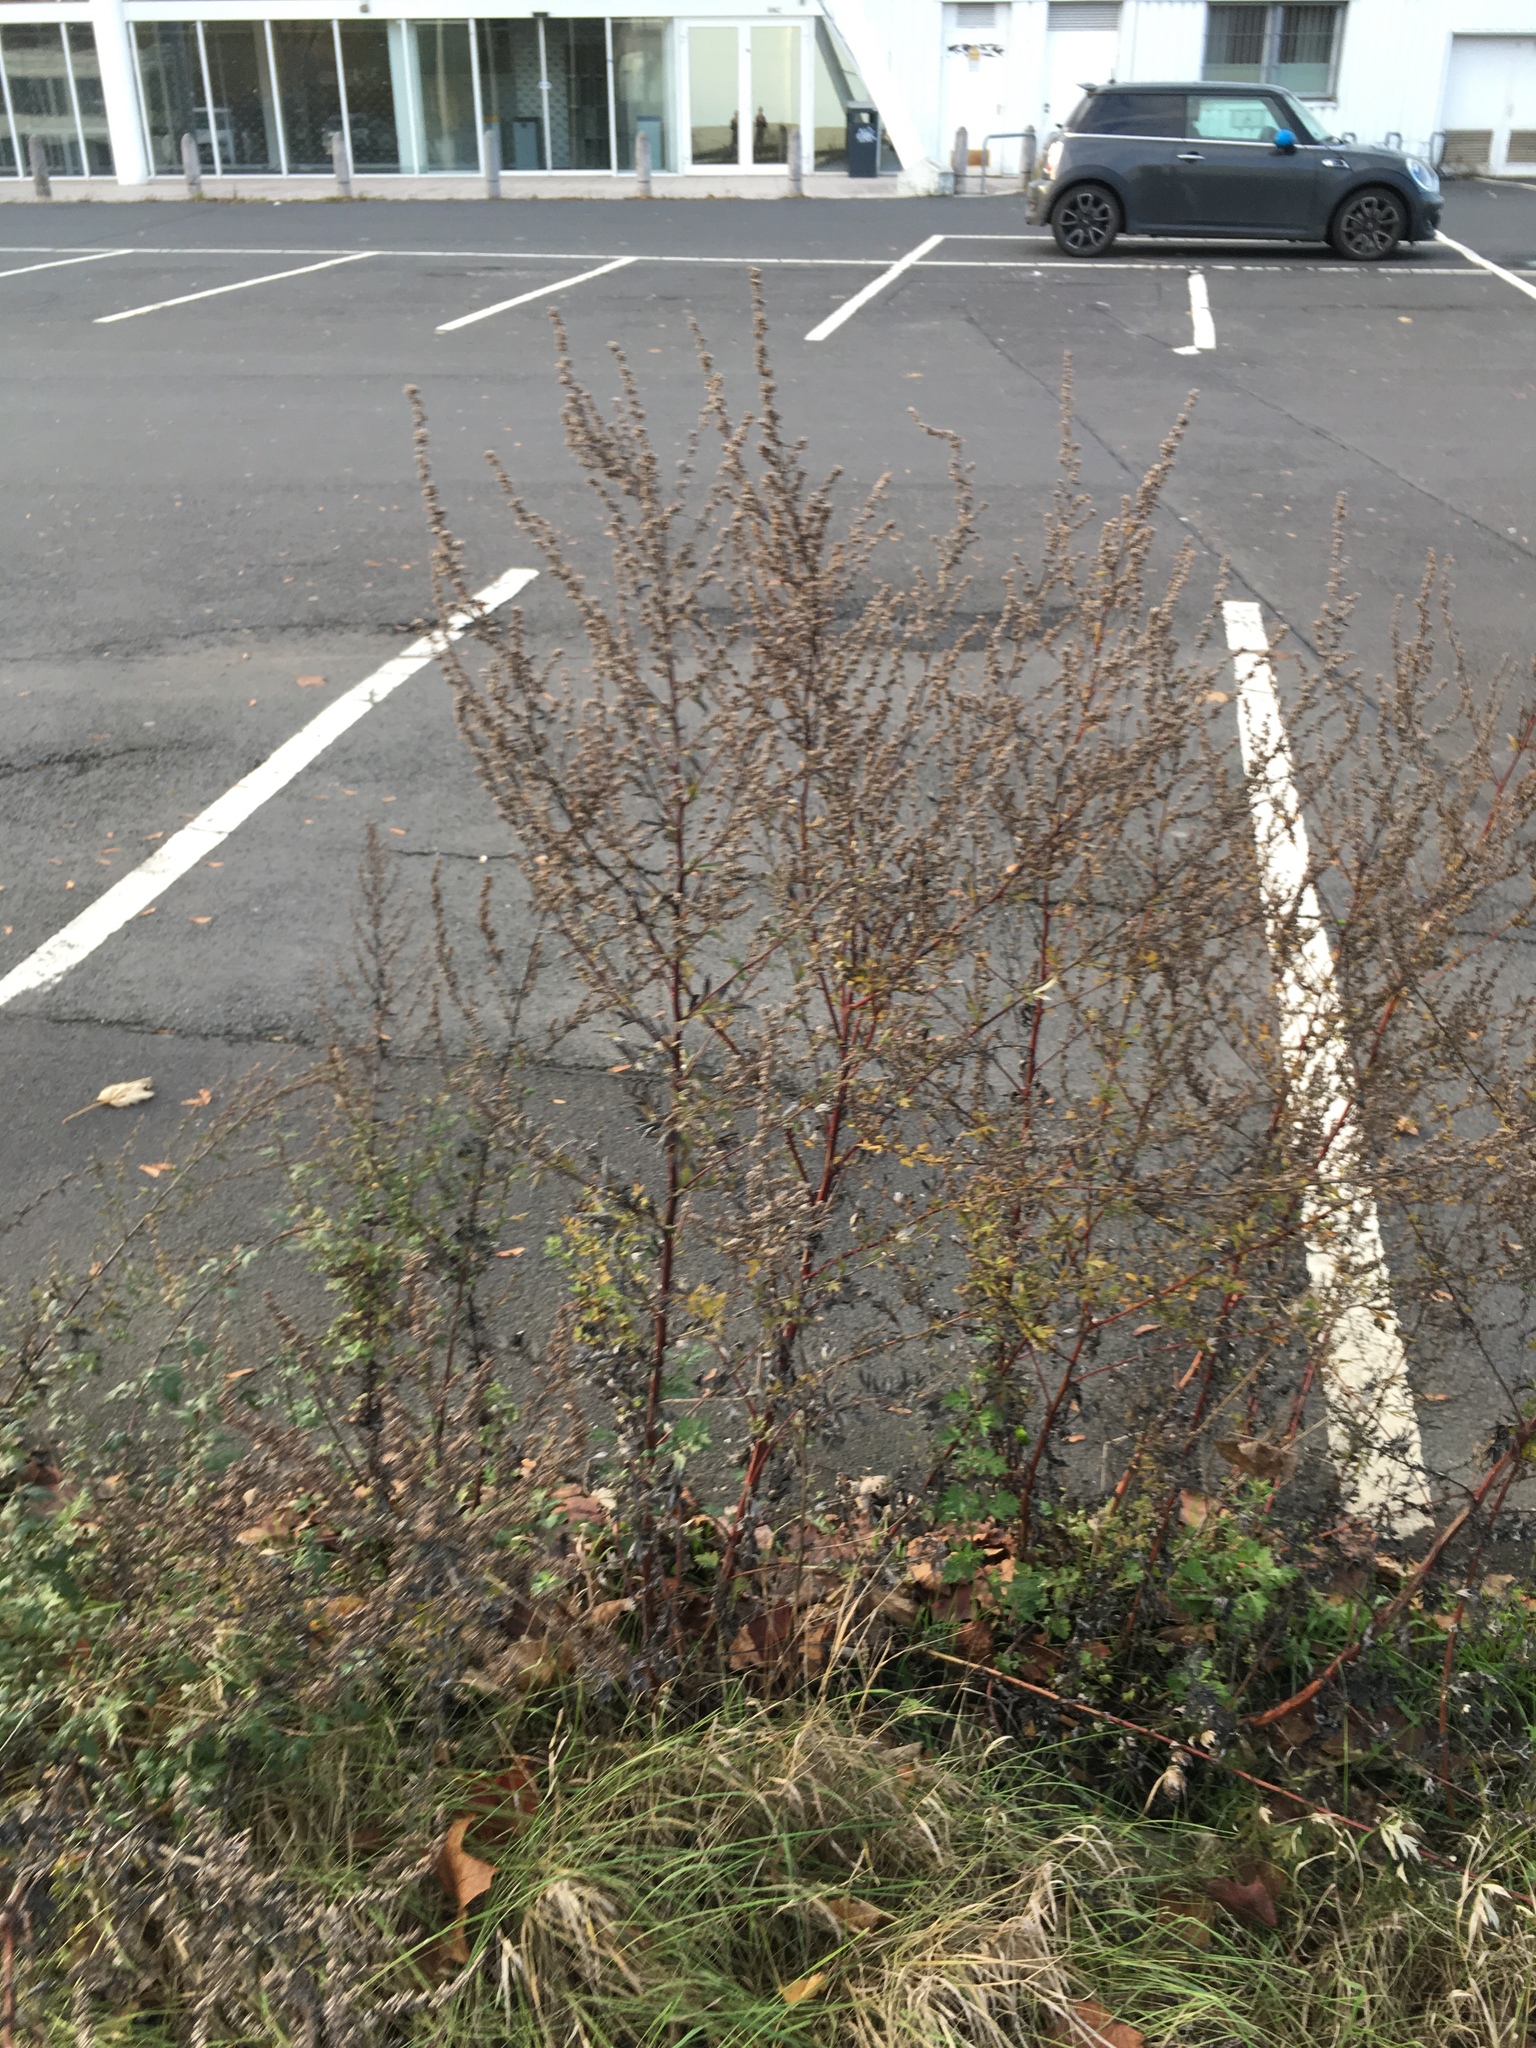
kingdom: Plantae
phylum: Tracheophyta
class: Magnoliopsida
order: Asterales
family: Asteraceae
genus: Artemisia
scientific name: Artemisia vulgaris
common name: Mugwort
